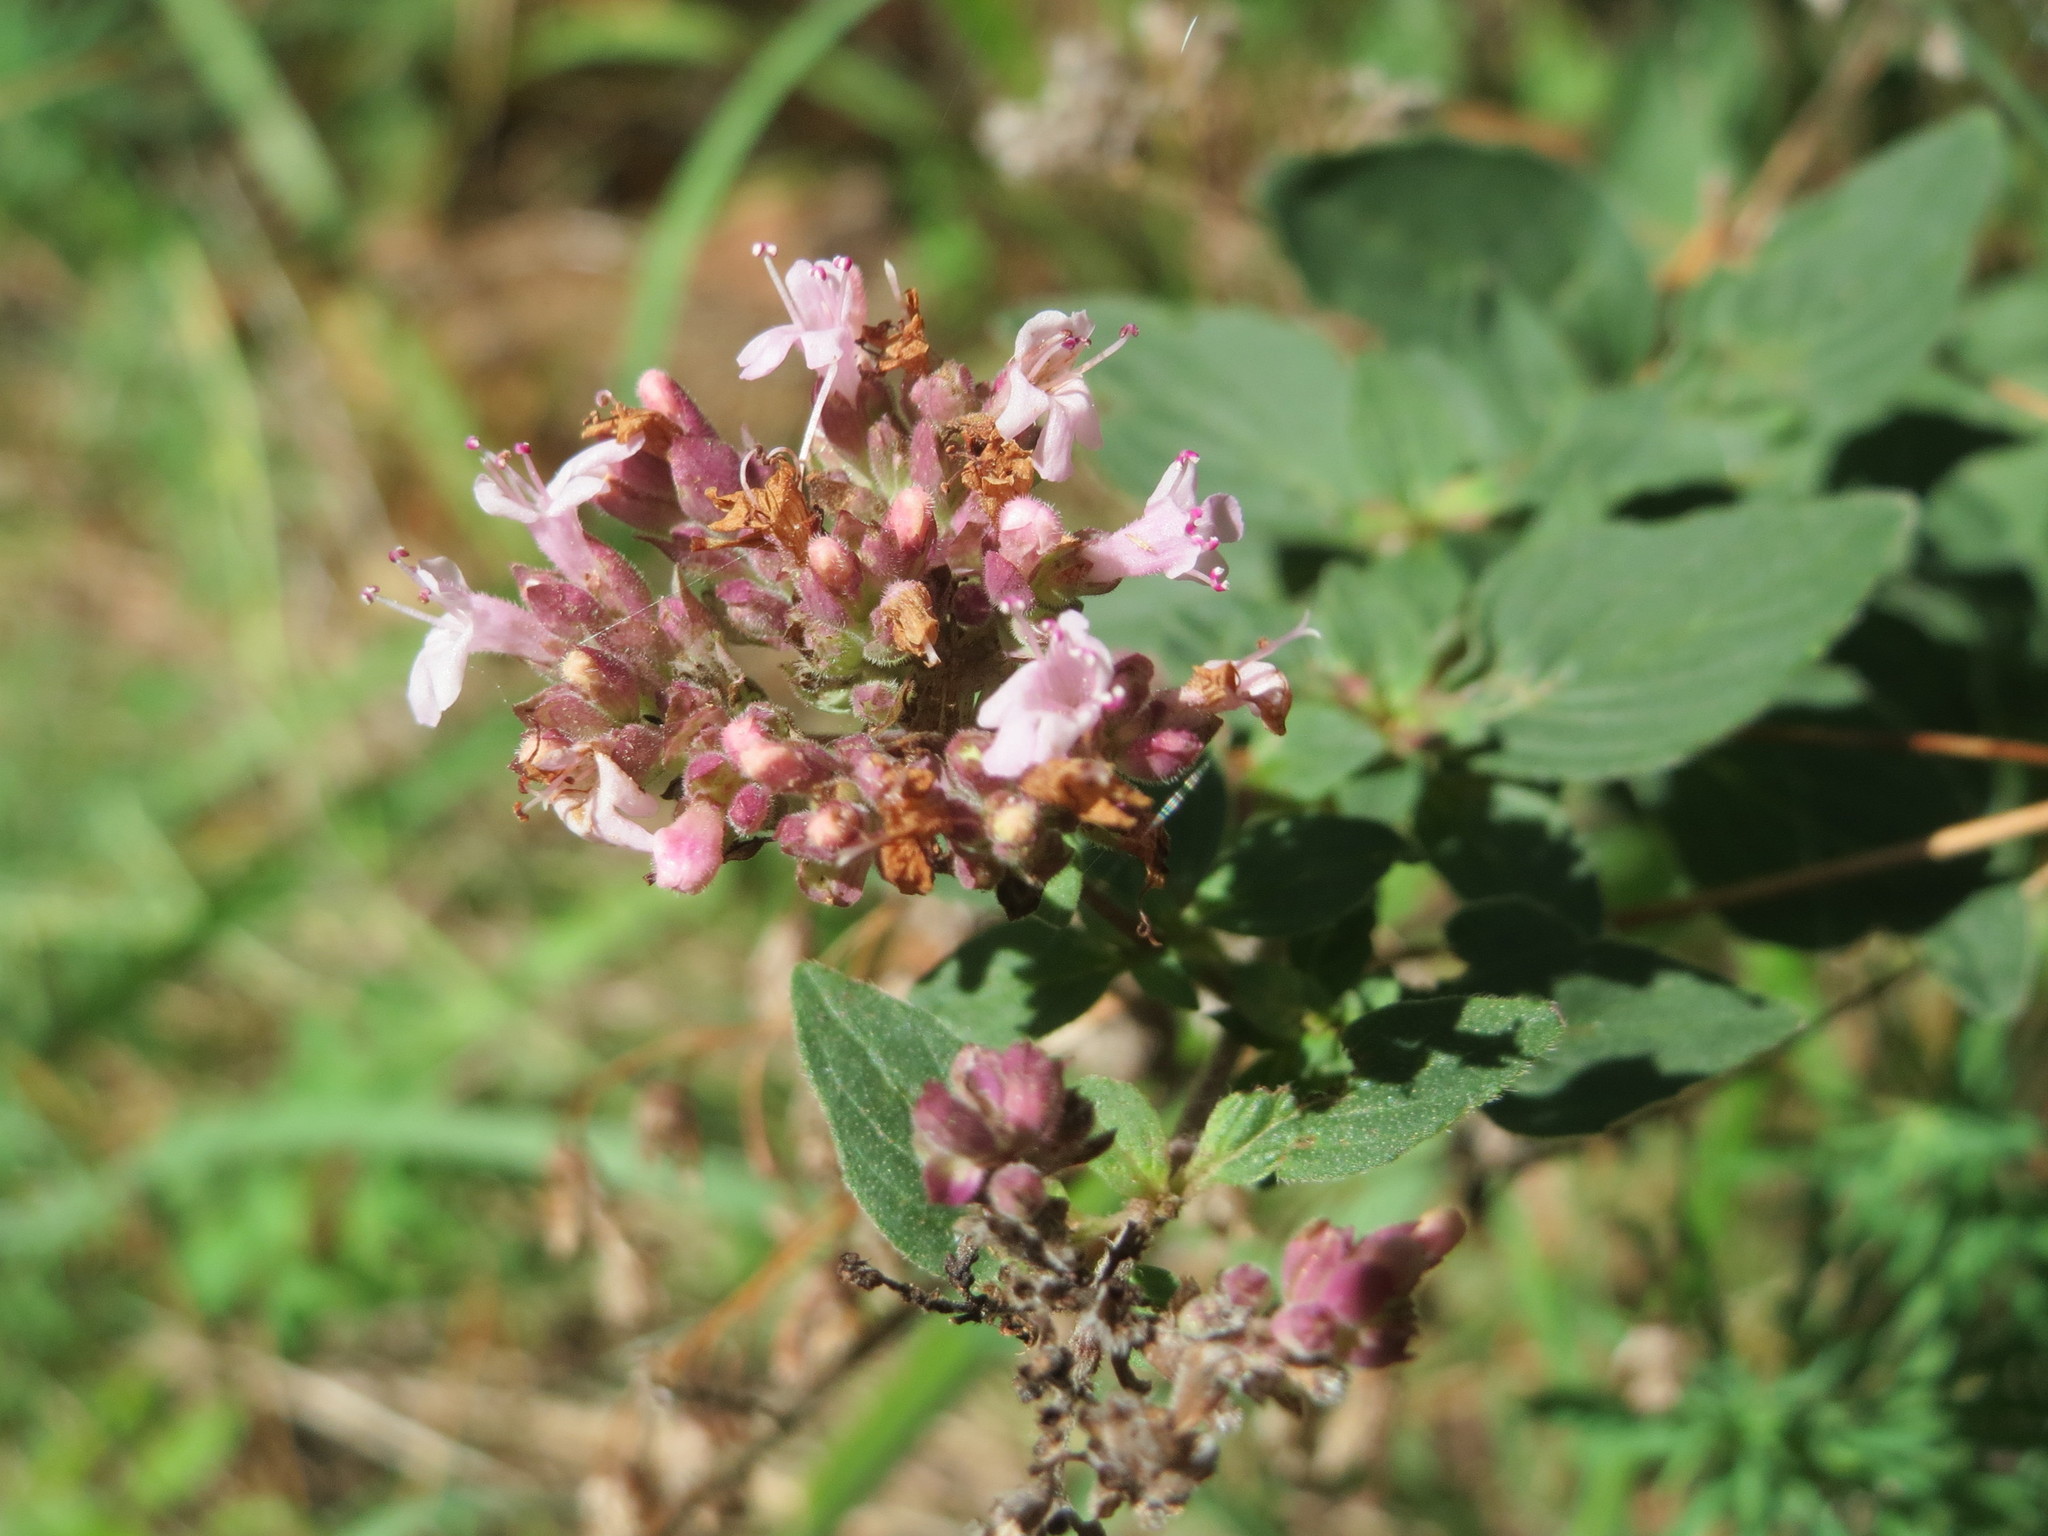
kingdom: Plantae
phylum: Tracheophyta
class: Magnoliopsida
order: Lamiales
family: Lamiaceae
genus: Origanum
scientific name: Origanum vulgare
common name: Wild marjoram
